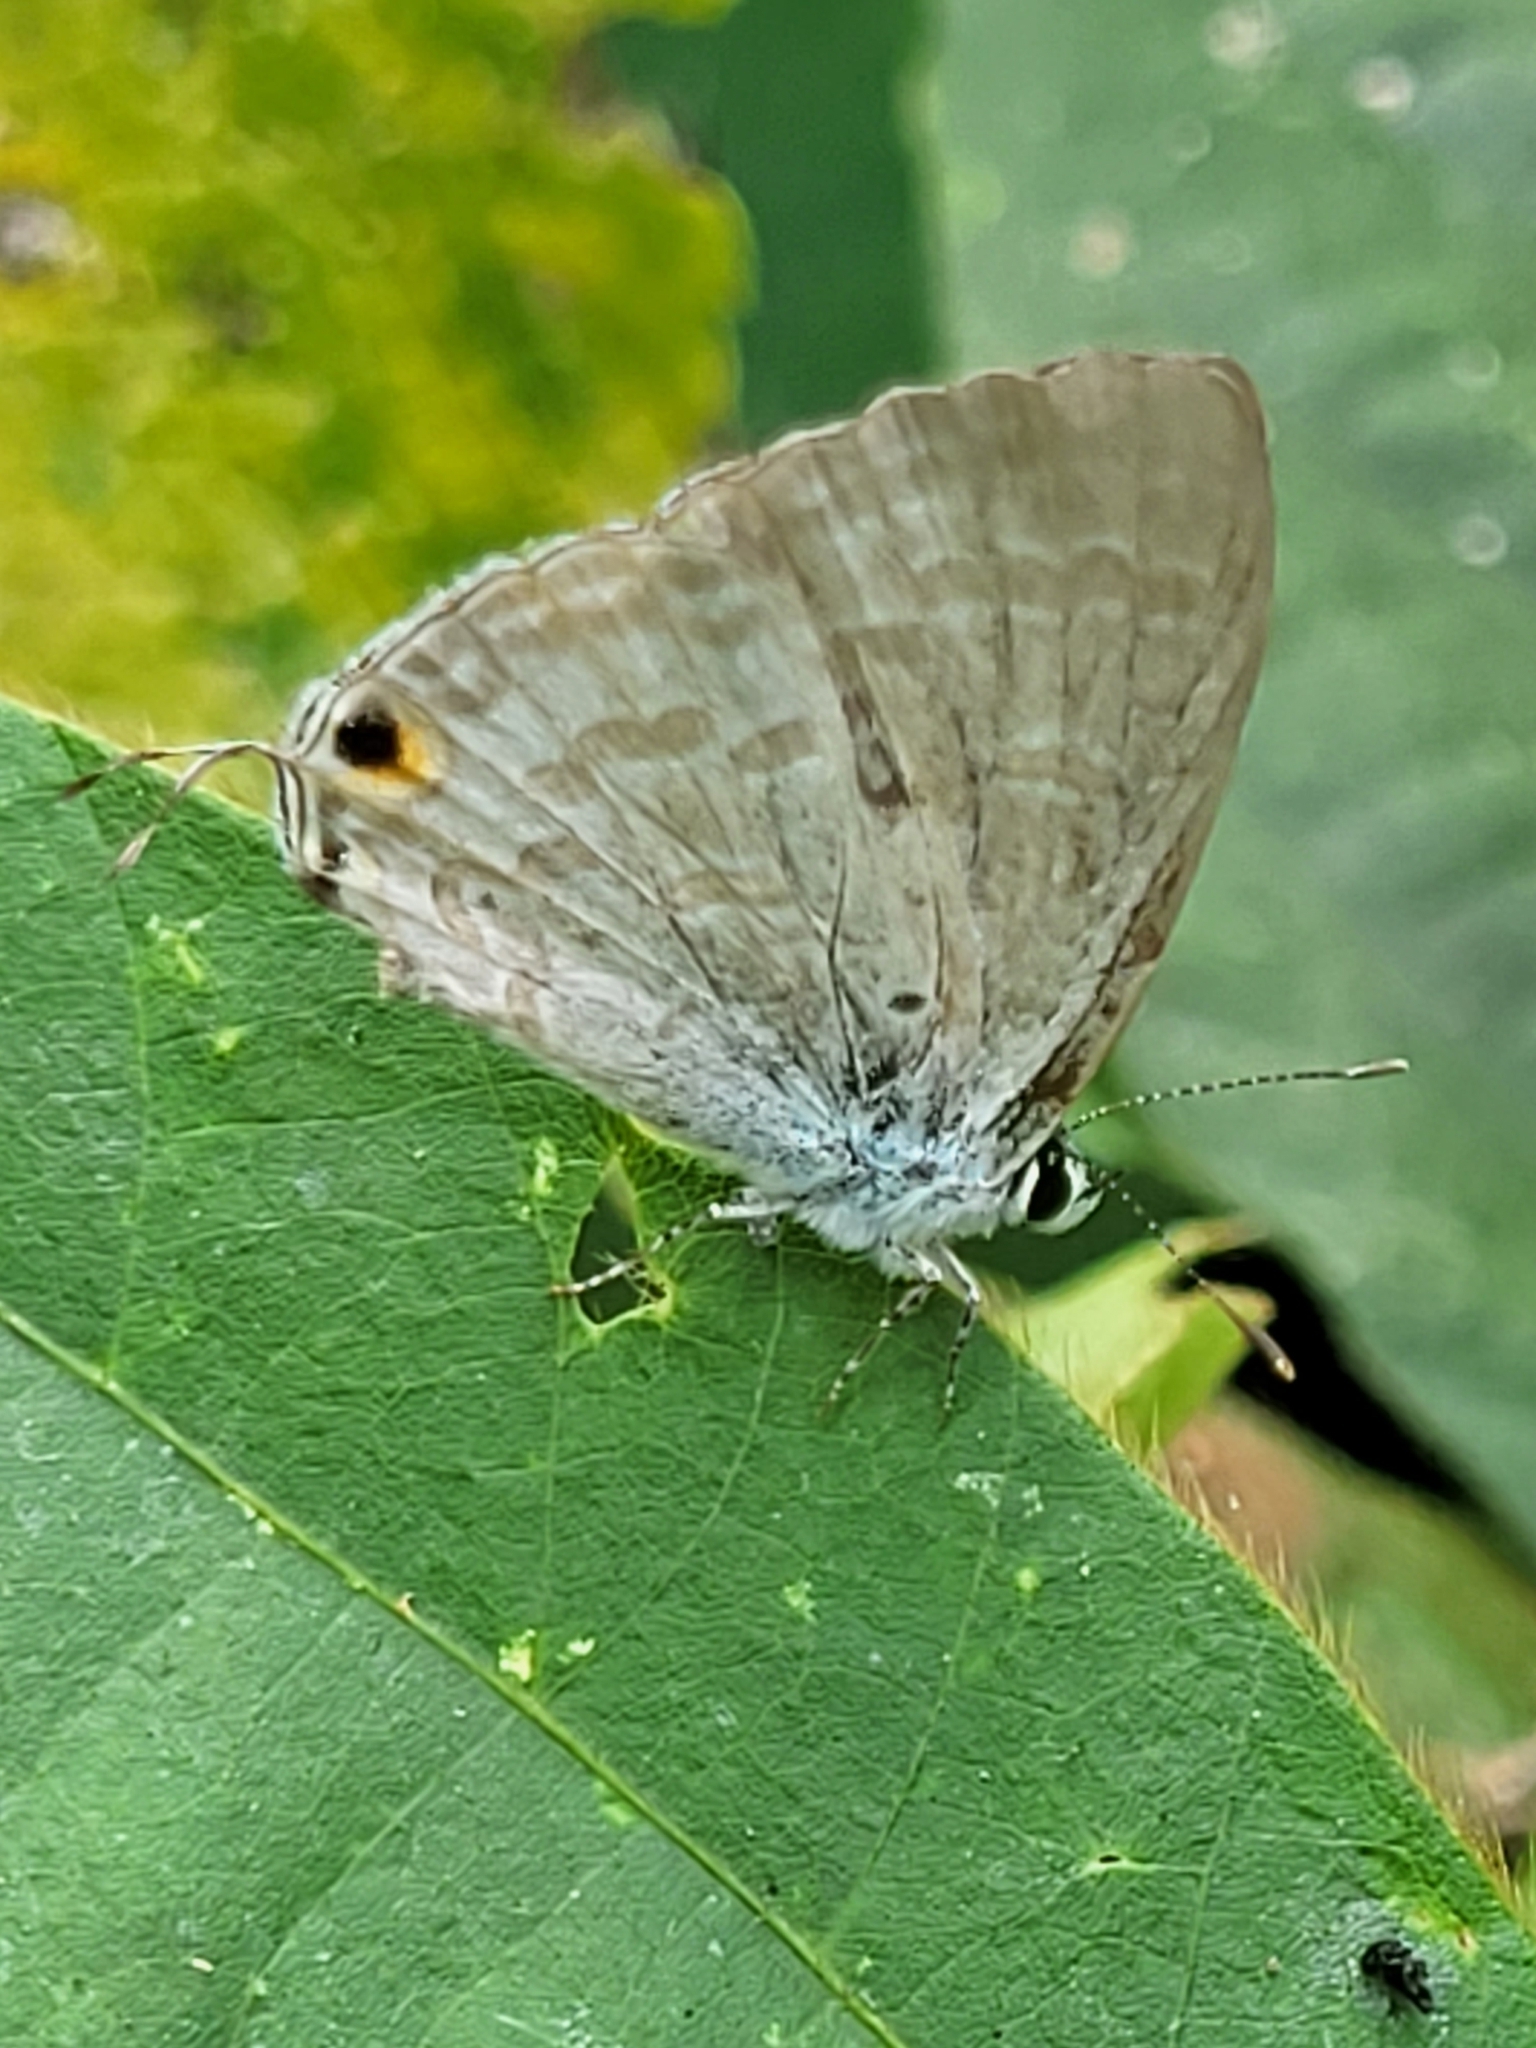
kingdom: Animalia
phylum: Arthropoda
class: Insecta
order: Lepidoptera
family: Lycaenidae
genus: Catochrysops
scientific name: Catochrysops strabo
